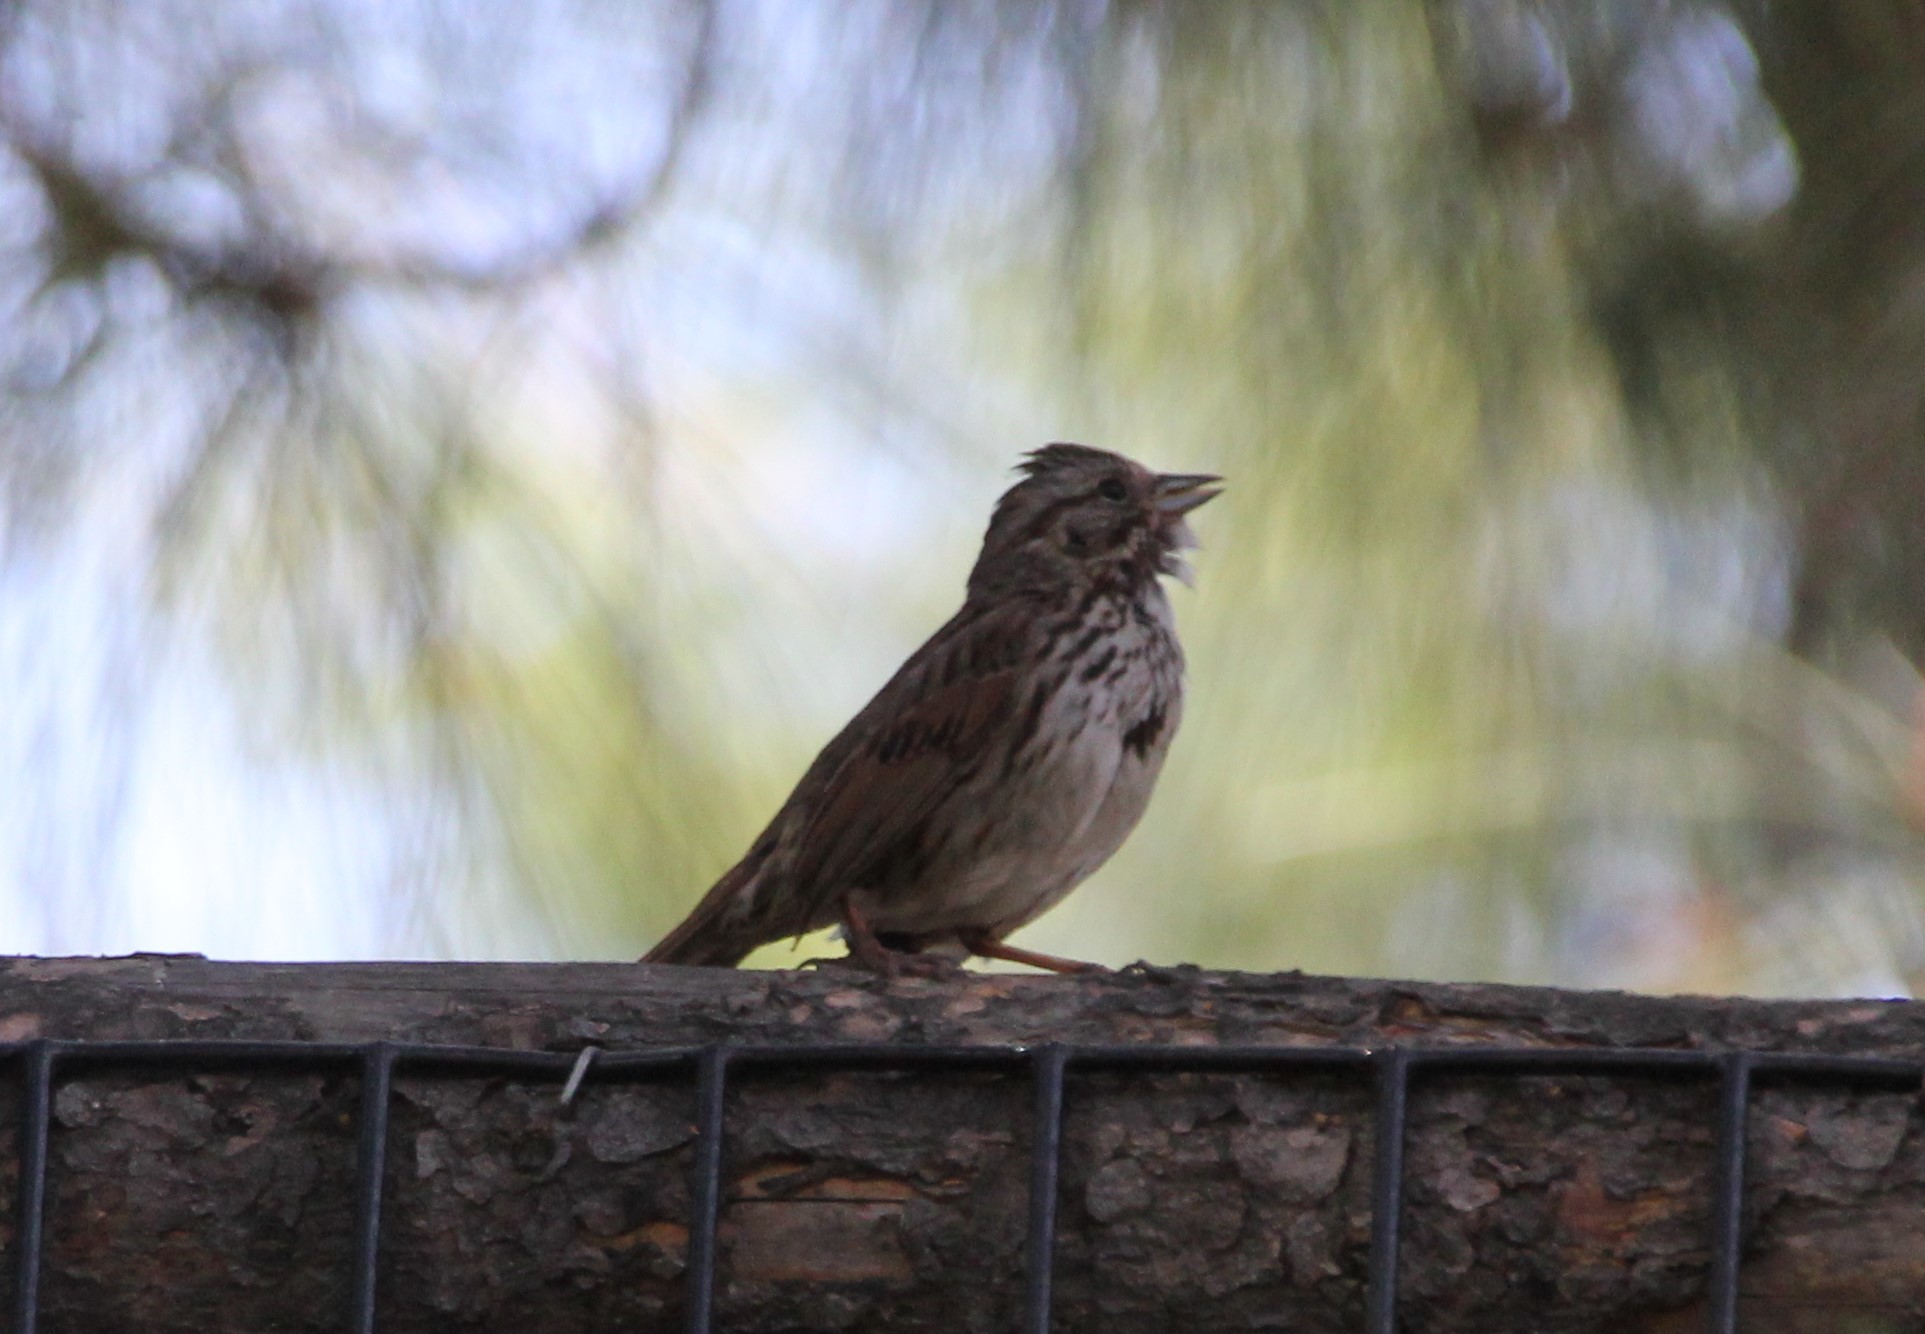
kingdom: Animalia
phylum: Chordata
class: Aves
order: Passeriformes
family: Passerellidae
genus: Melospiza
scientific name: Melospiza melodia
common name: Song sparrow
